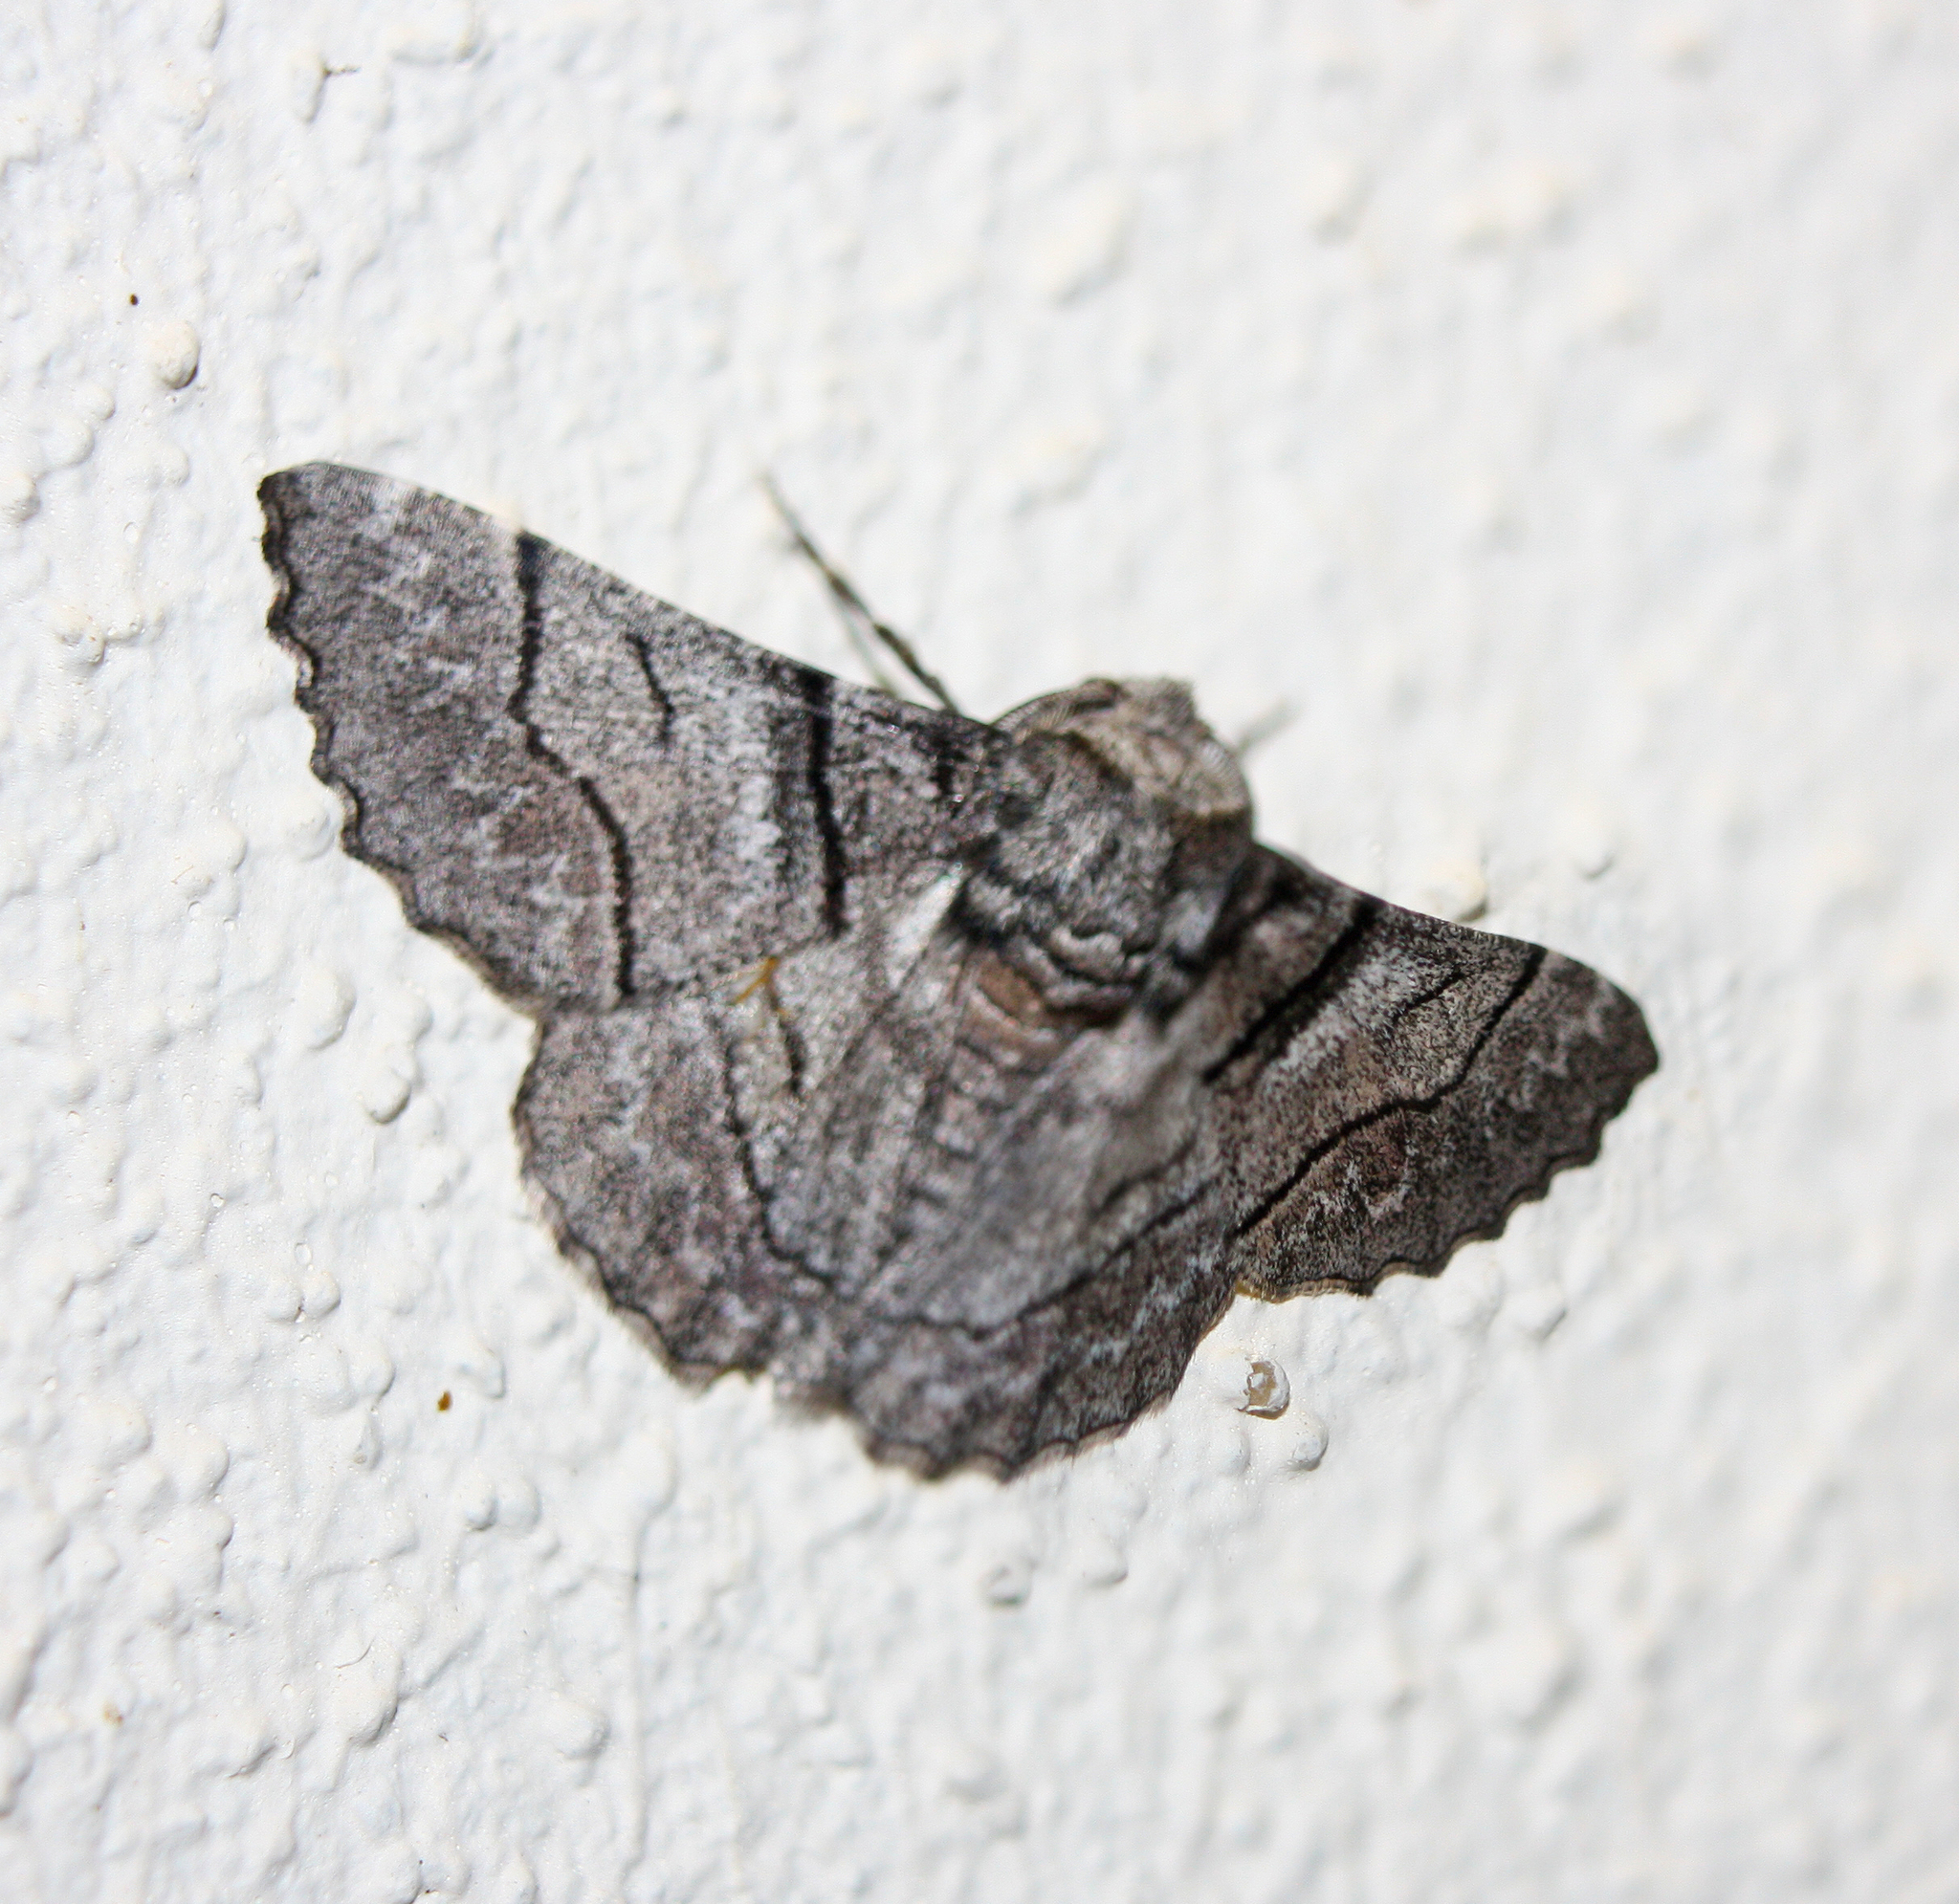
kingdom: Animalia
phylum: Arthropoda
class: Insecta
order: Lepidoptera
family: Geometridae
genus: Hypobapta
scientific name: Hypobapta diffundens
